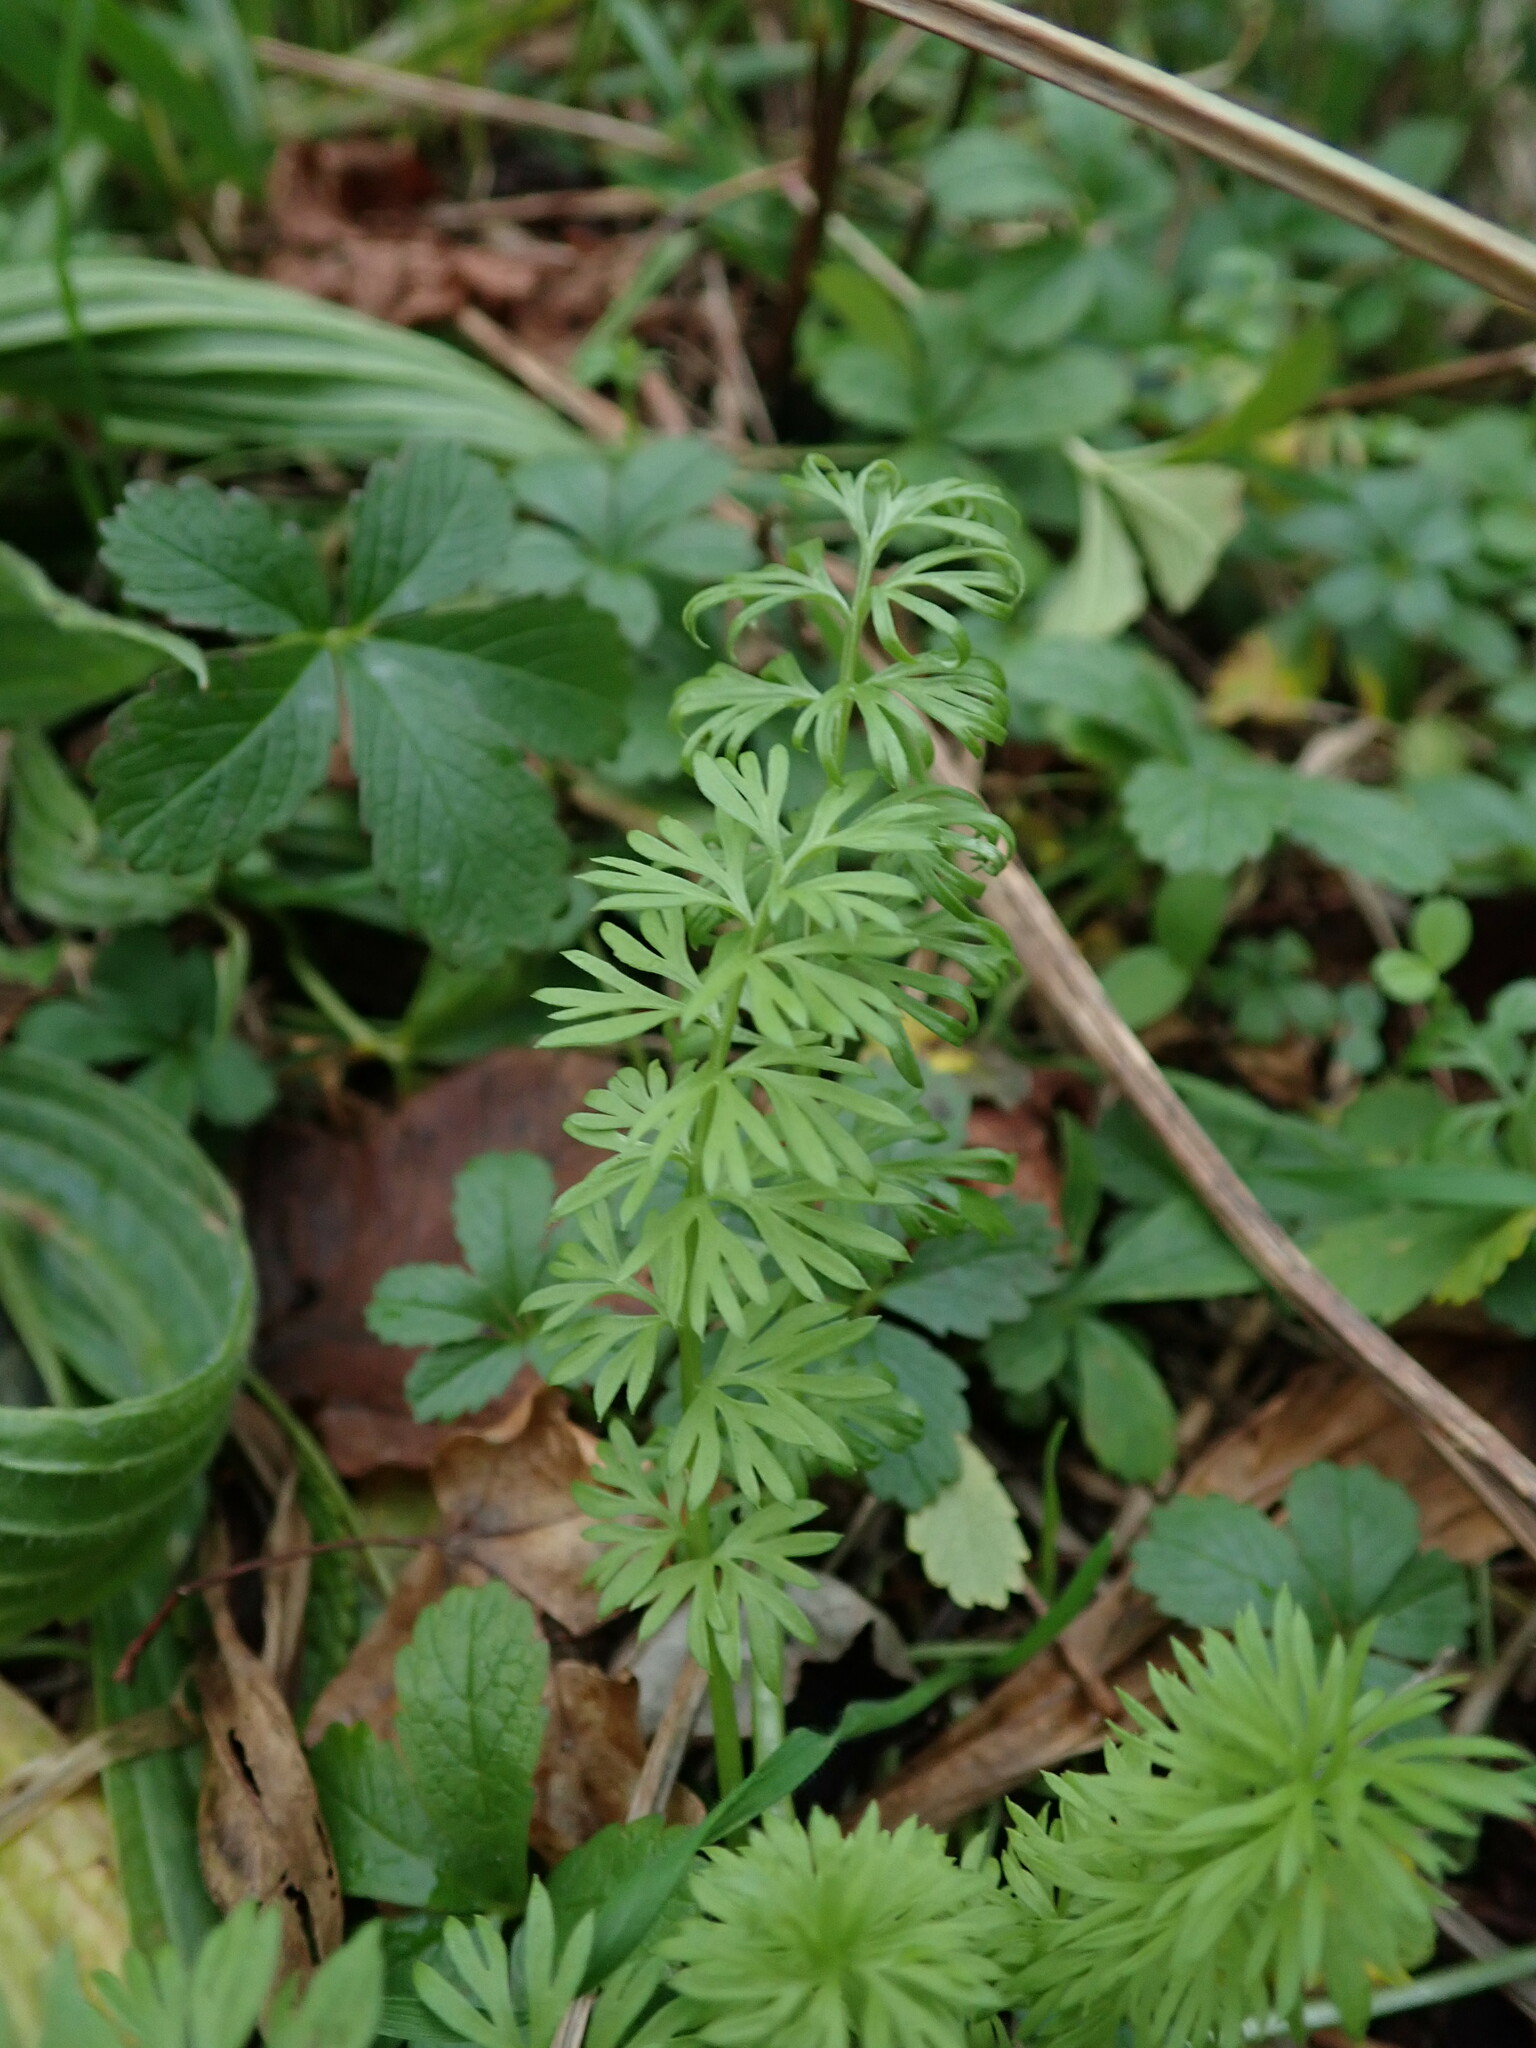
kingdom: Plantae
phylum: Tracheophyta
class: Magnoliopsida
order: Ranunculales
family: Ranunculaceae
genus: Nigella
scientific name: Nigella damascena
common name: Love-in-a-mist
